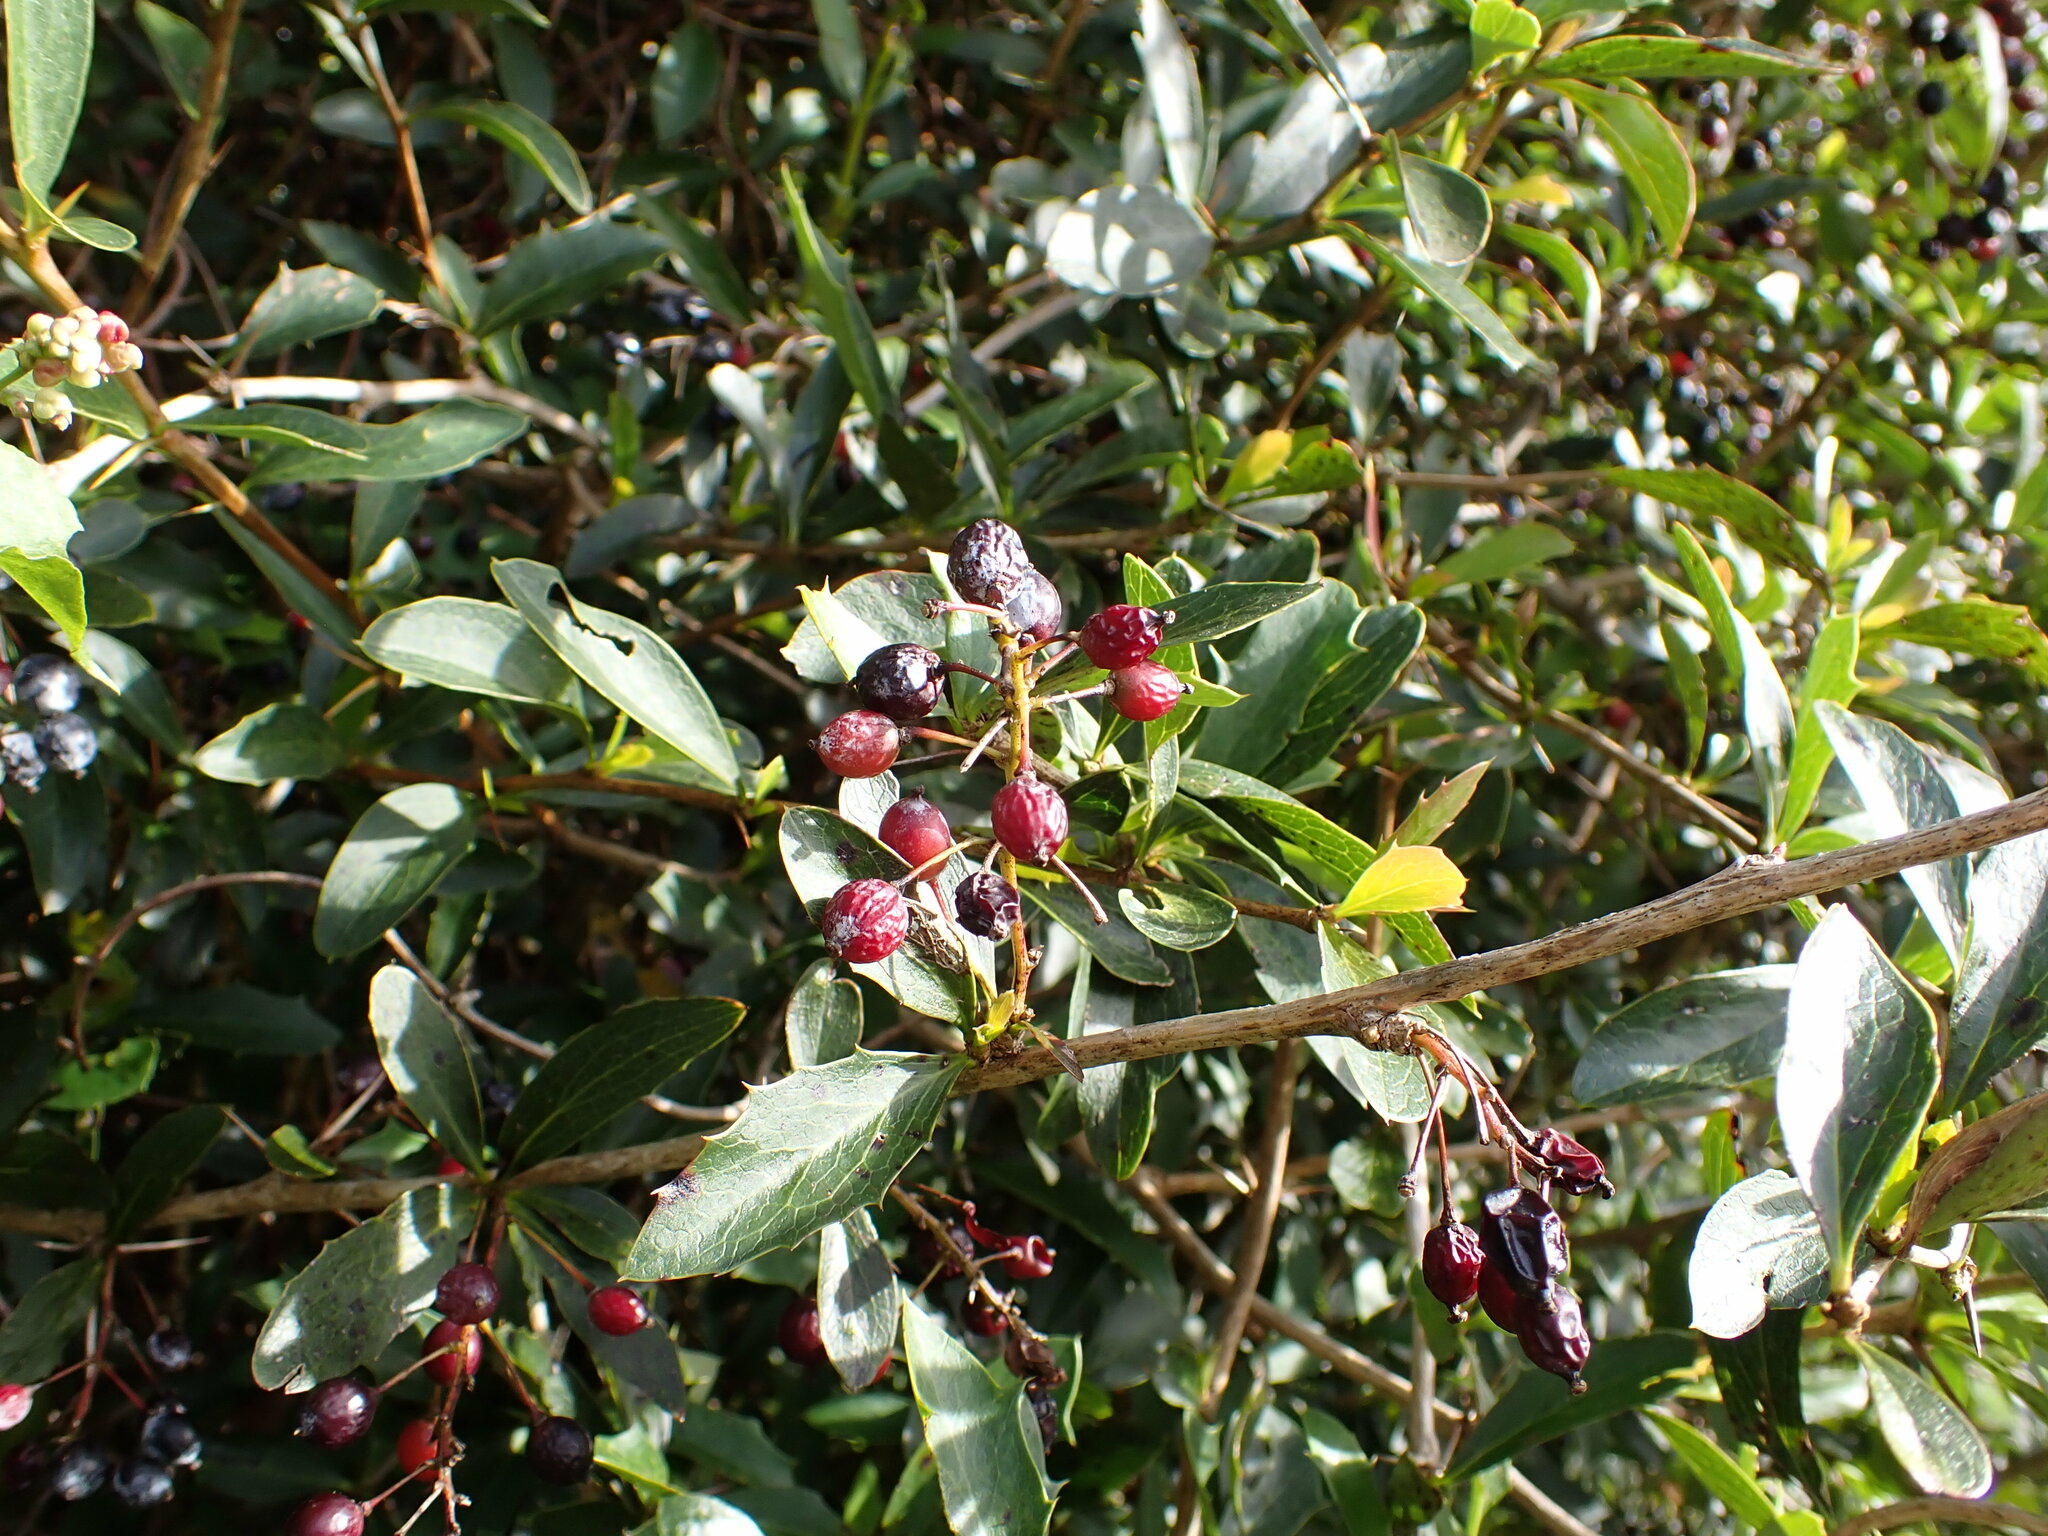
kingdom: Plantae
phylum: Tracheophyta
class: Magnoliopsida
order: Ranunculales
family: Berberidaceae
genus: Berberis
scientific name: Berberis glaucocarpa
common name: Great barberry
